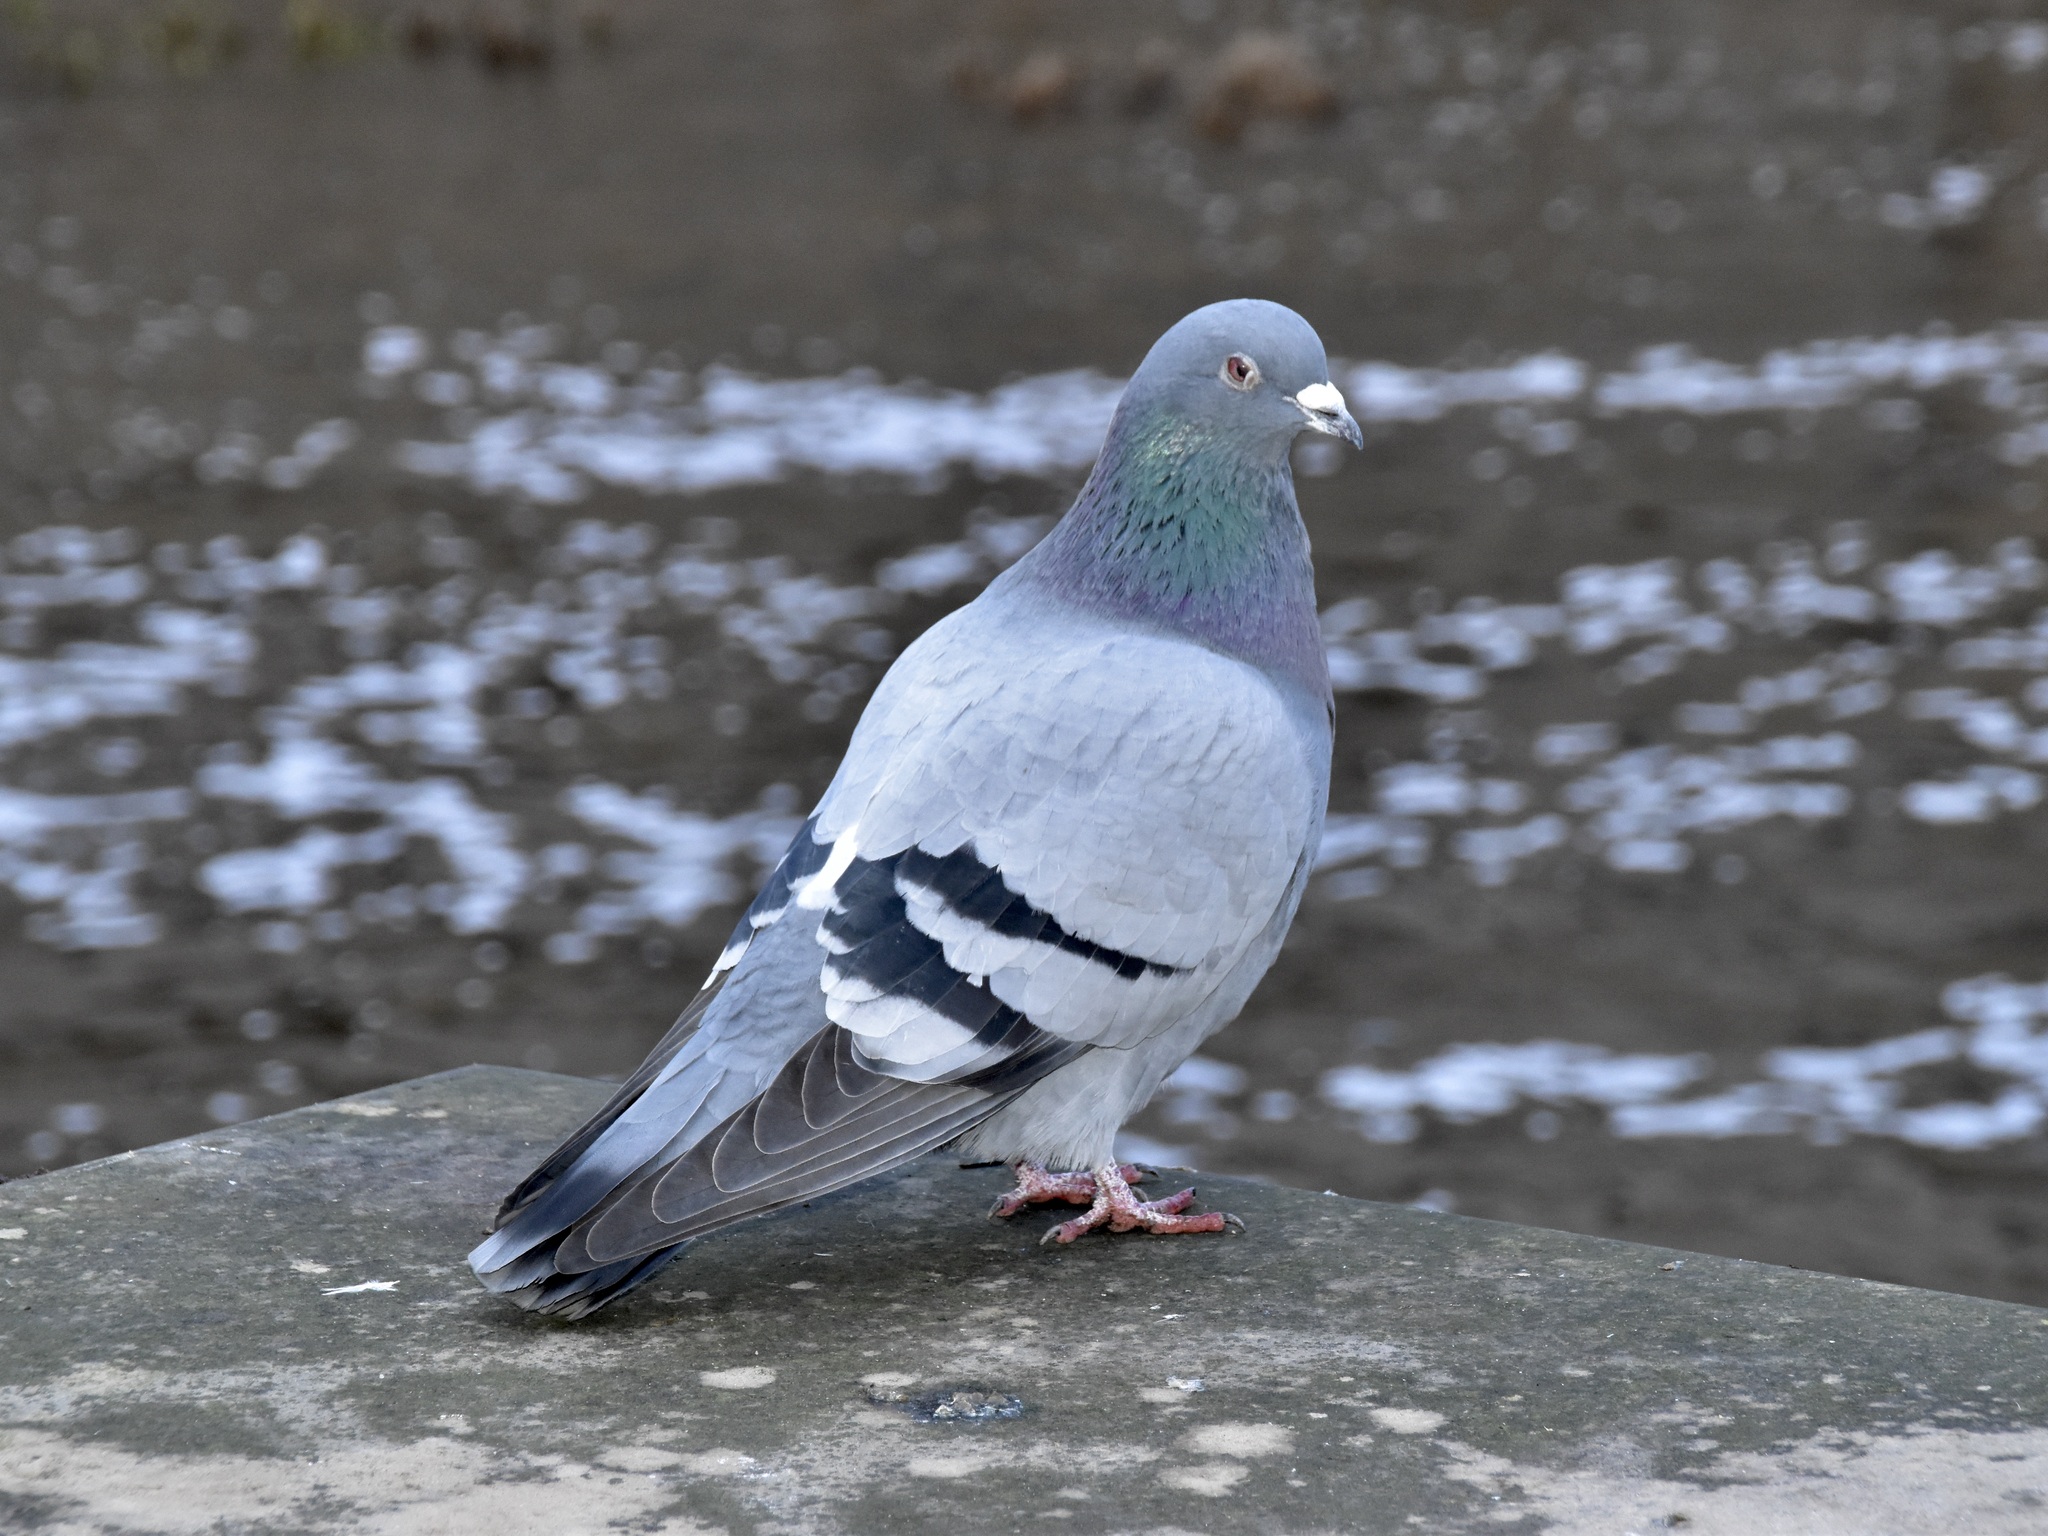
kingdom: Animalia
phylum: Chordata
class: Aves
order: Columbiformes
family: Columbidae
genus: Columba
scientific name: Columba livia
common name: Rock pigeon
